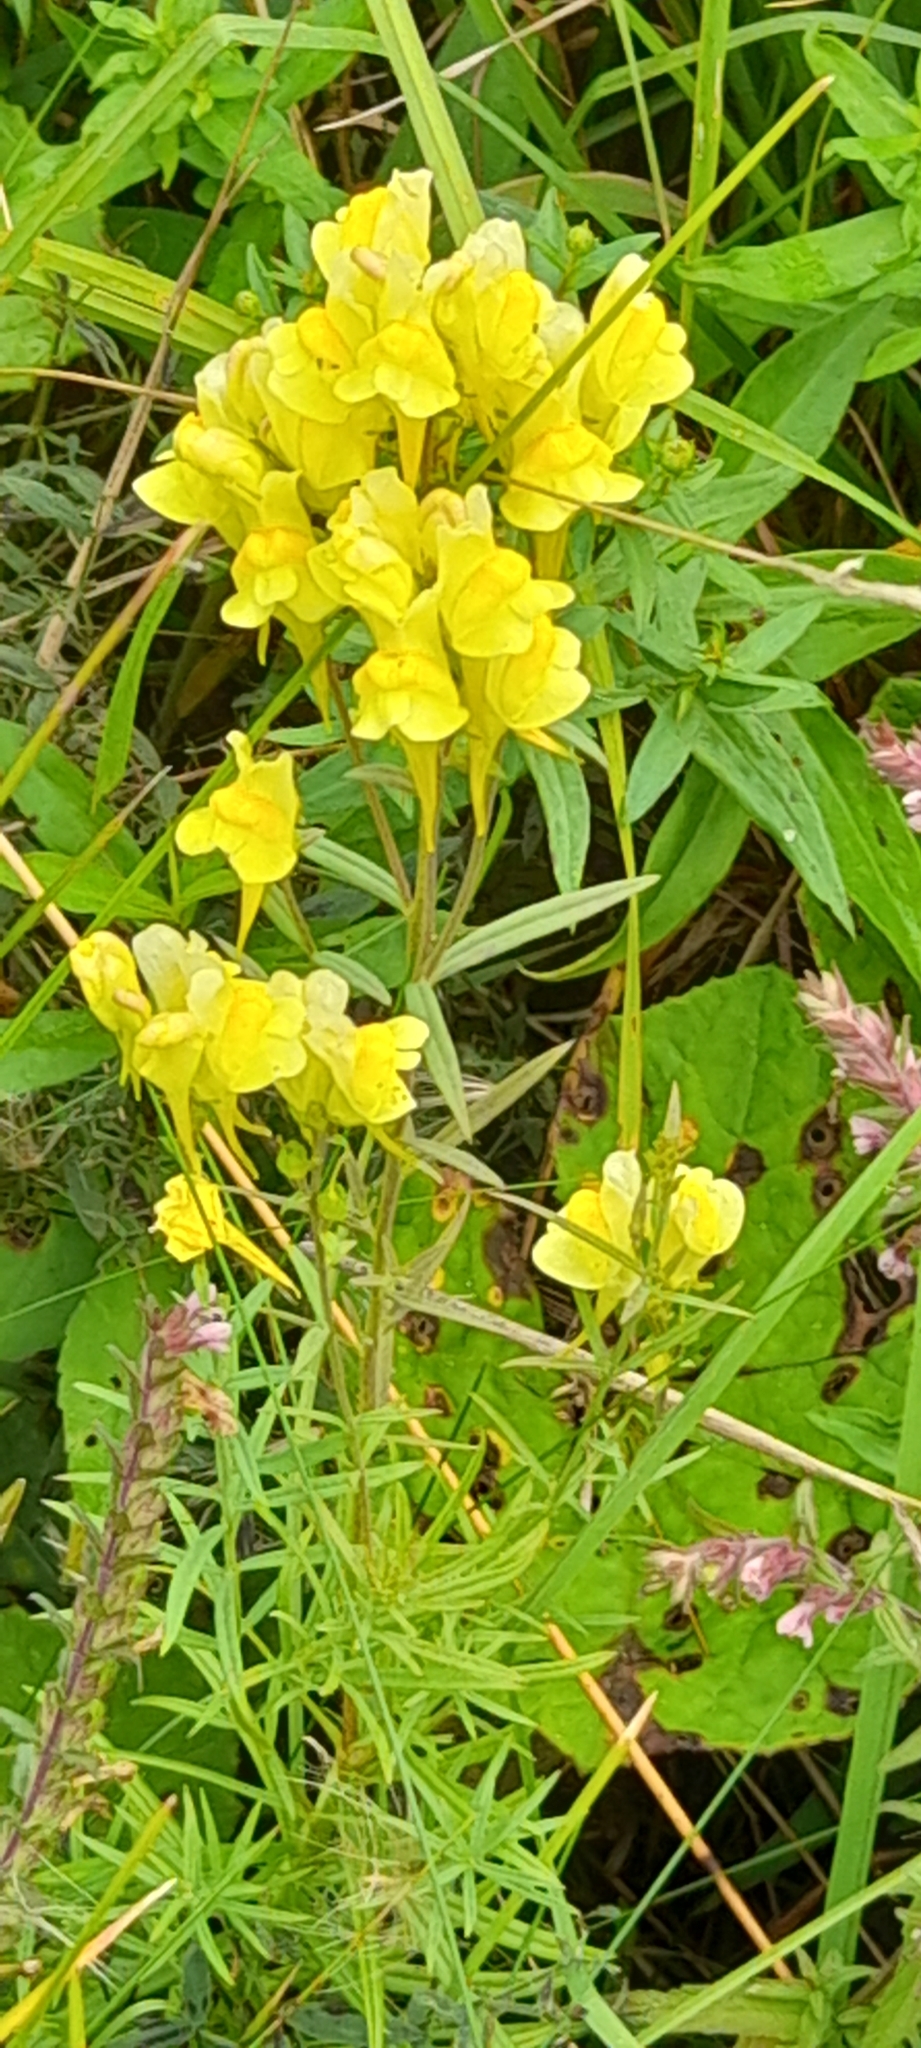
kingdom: Plantae
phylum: Tracheophyta
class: Magnoliopsida
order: Lamiales
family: Plantaginaceae
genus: Linaria
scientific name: Linaria vulgaris
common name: Butter and eggs
